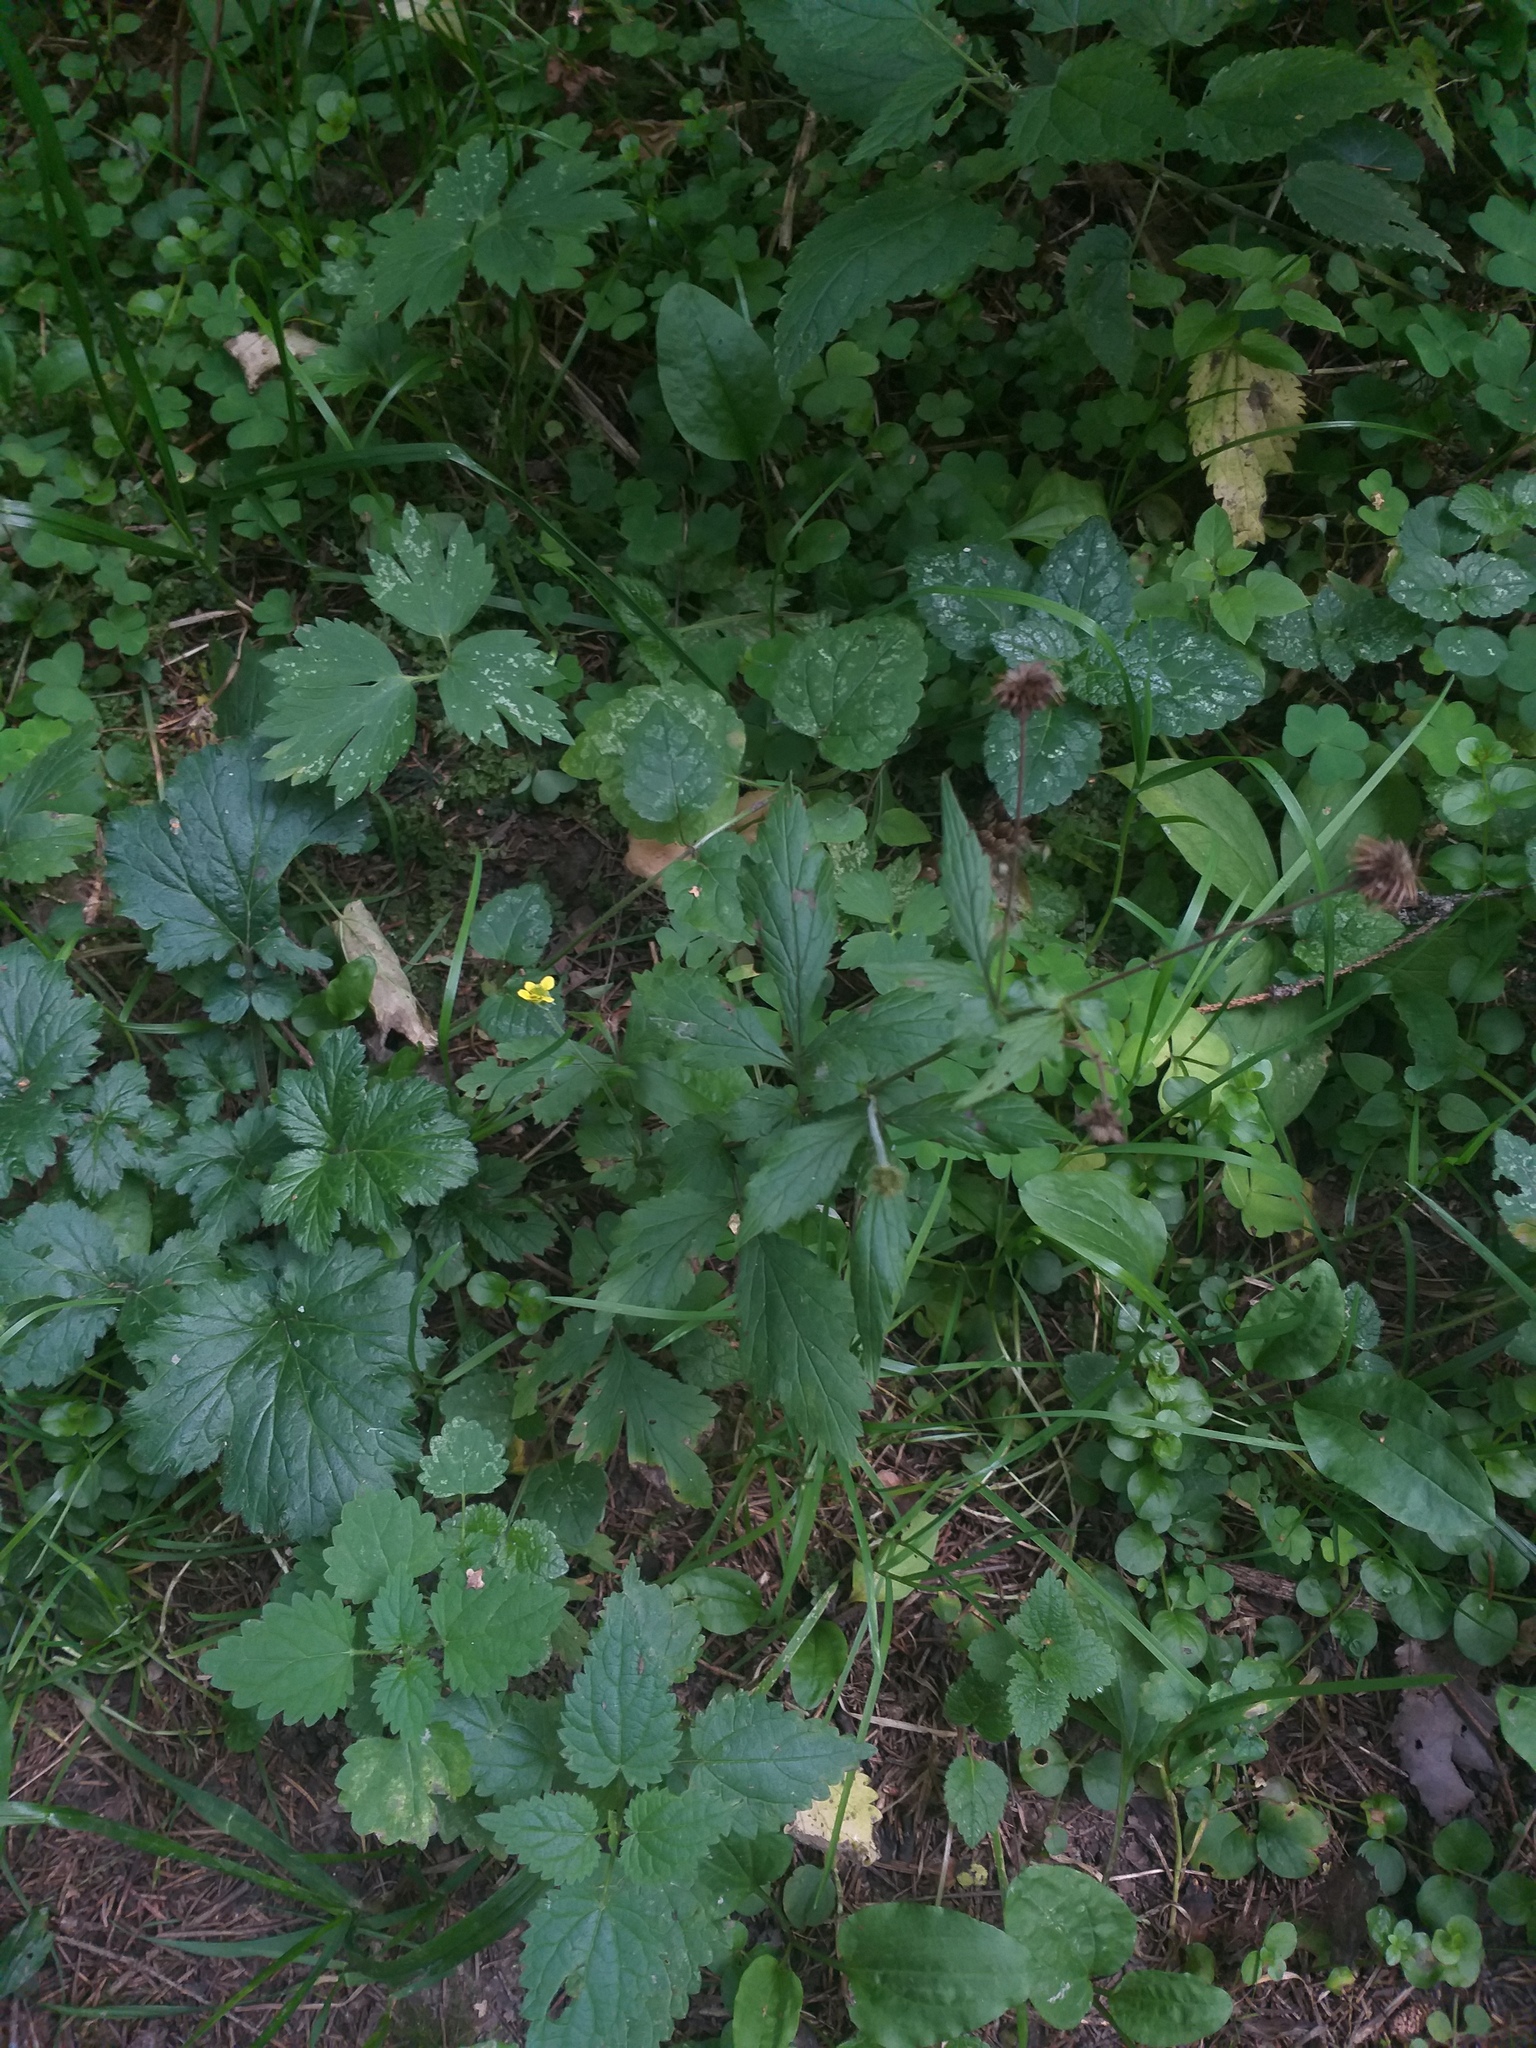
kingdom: Plantae
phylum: Tracheophyta
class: Magnoliopsida
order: Rosales
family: Rosaceae
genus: Geum
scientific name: Geum urbanum
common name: Wood avens
